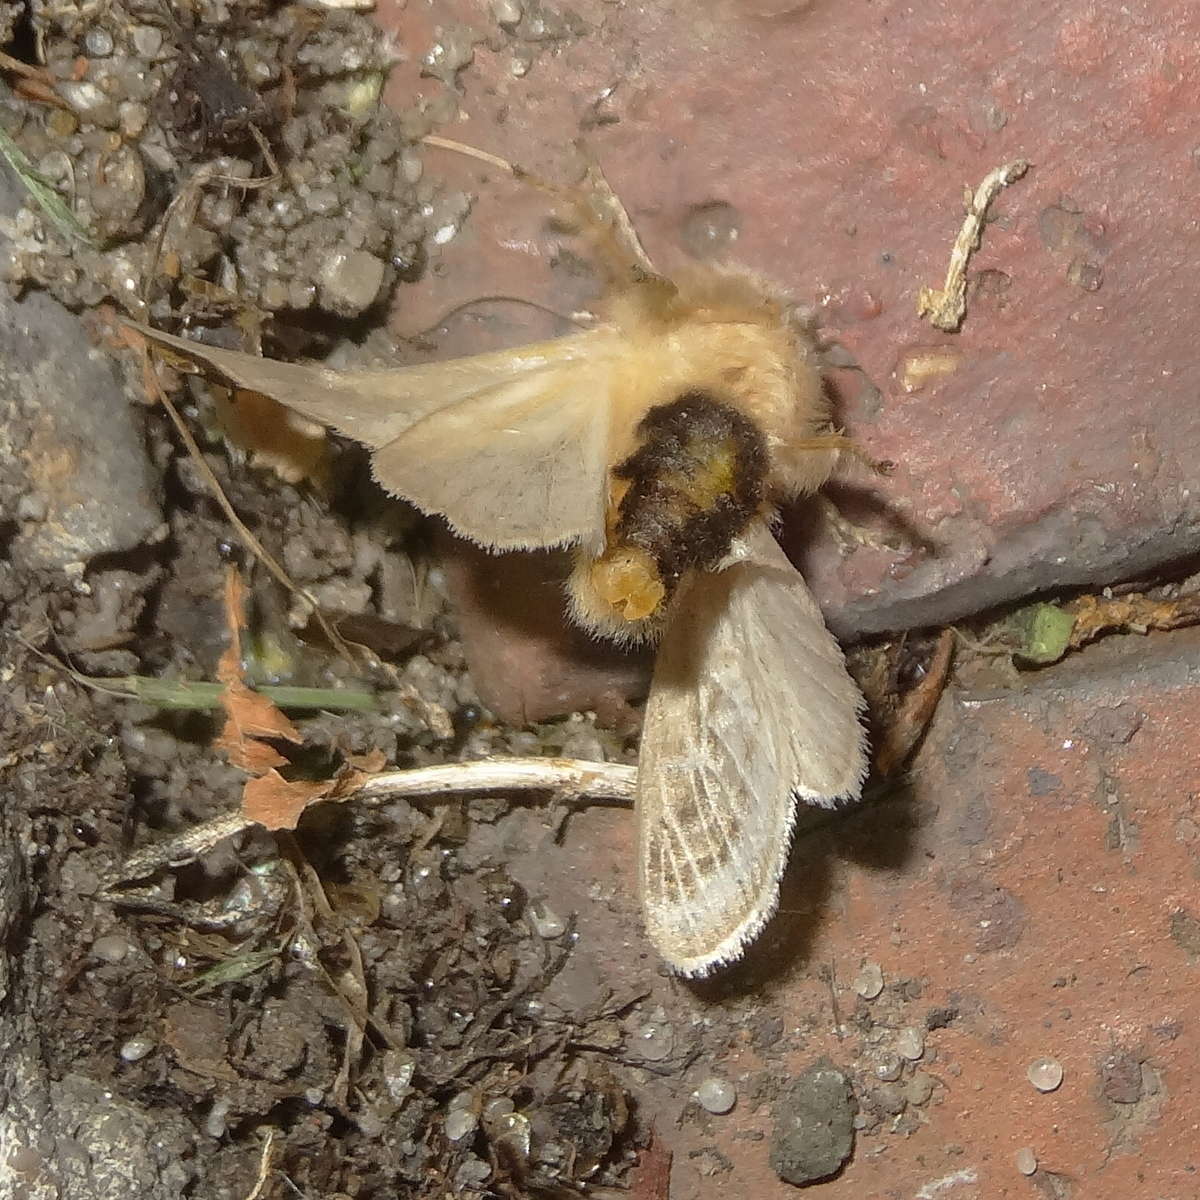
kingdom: Animalia
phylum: Arthropoda
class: Insecta
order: Lepidoptera
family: Limacodidae
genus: Doratifera
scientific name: Doratifera pinguis
